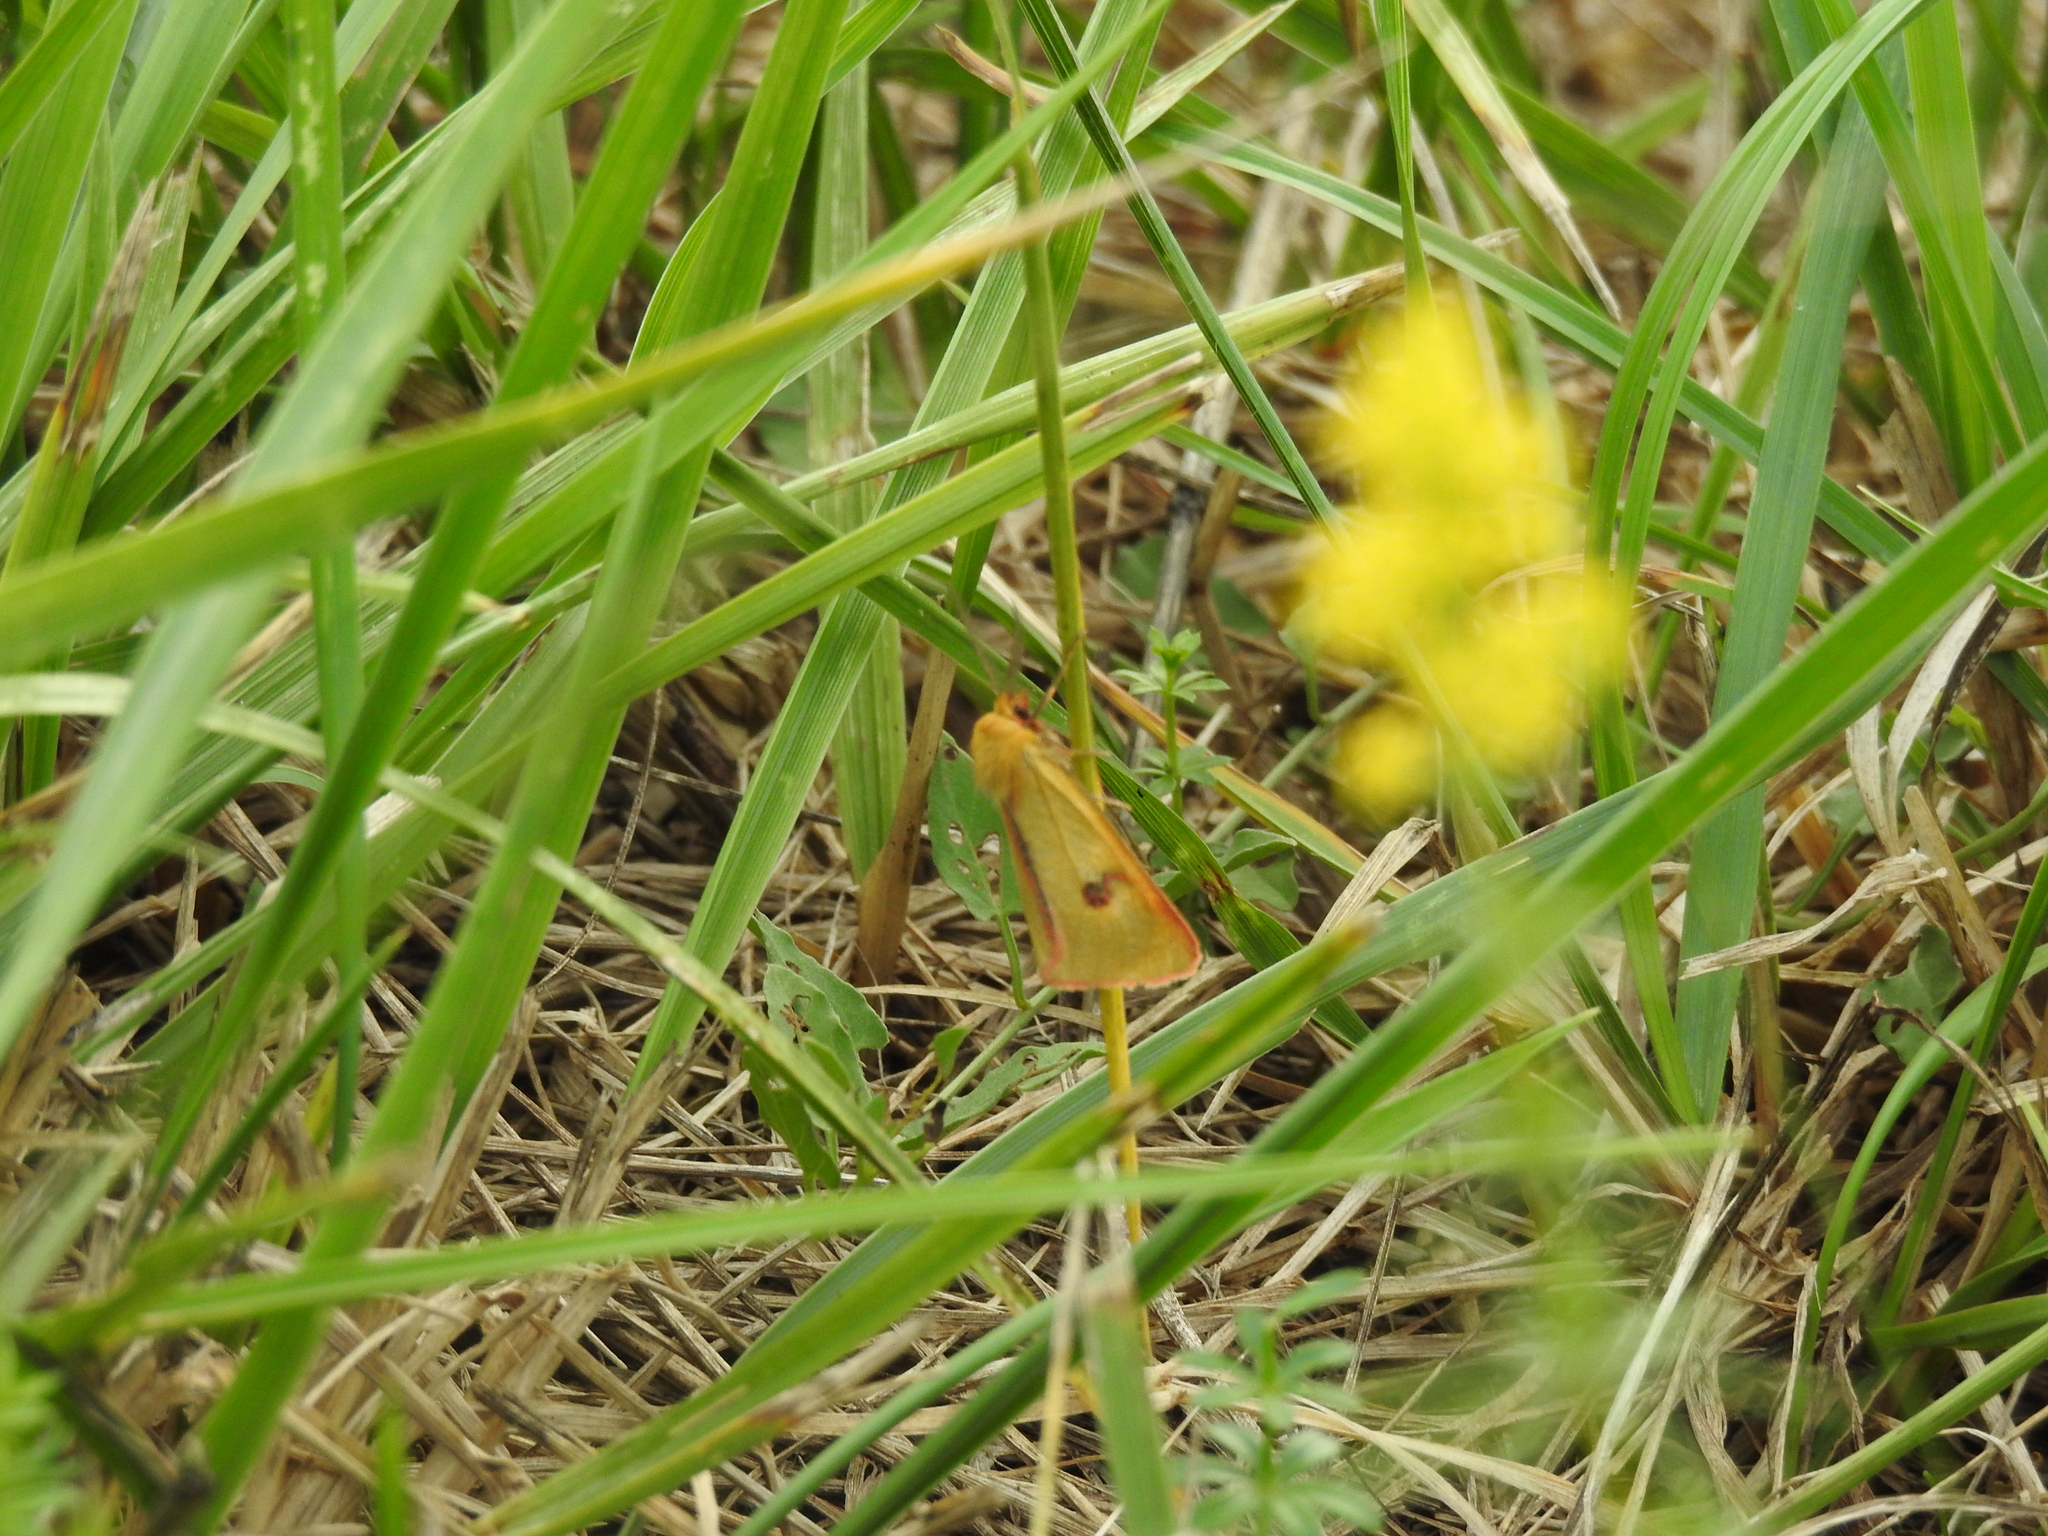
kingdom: Animalia
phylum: Arthropoda
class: Insecta
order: Lepidoptera
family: Erebidae
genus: Diacrisia
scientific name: Diacrisia sannio
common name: Clouded buff
